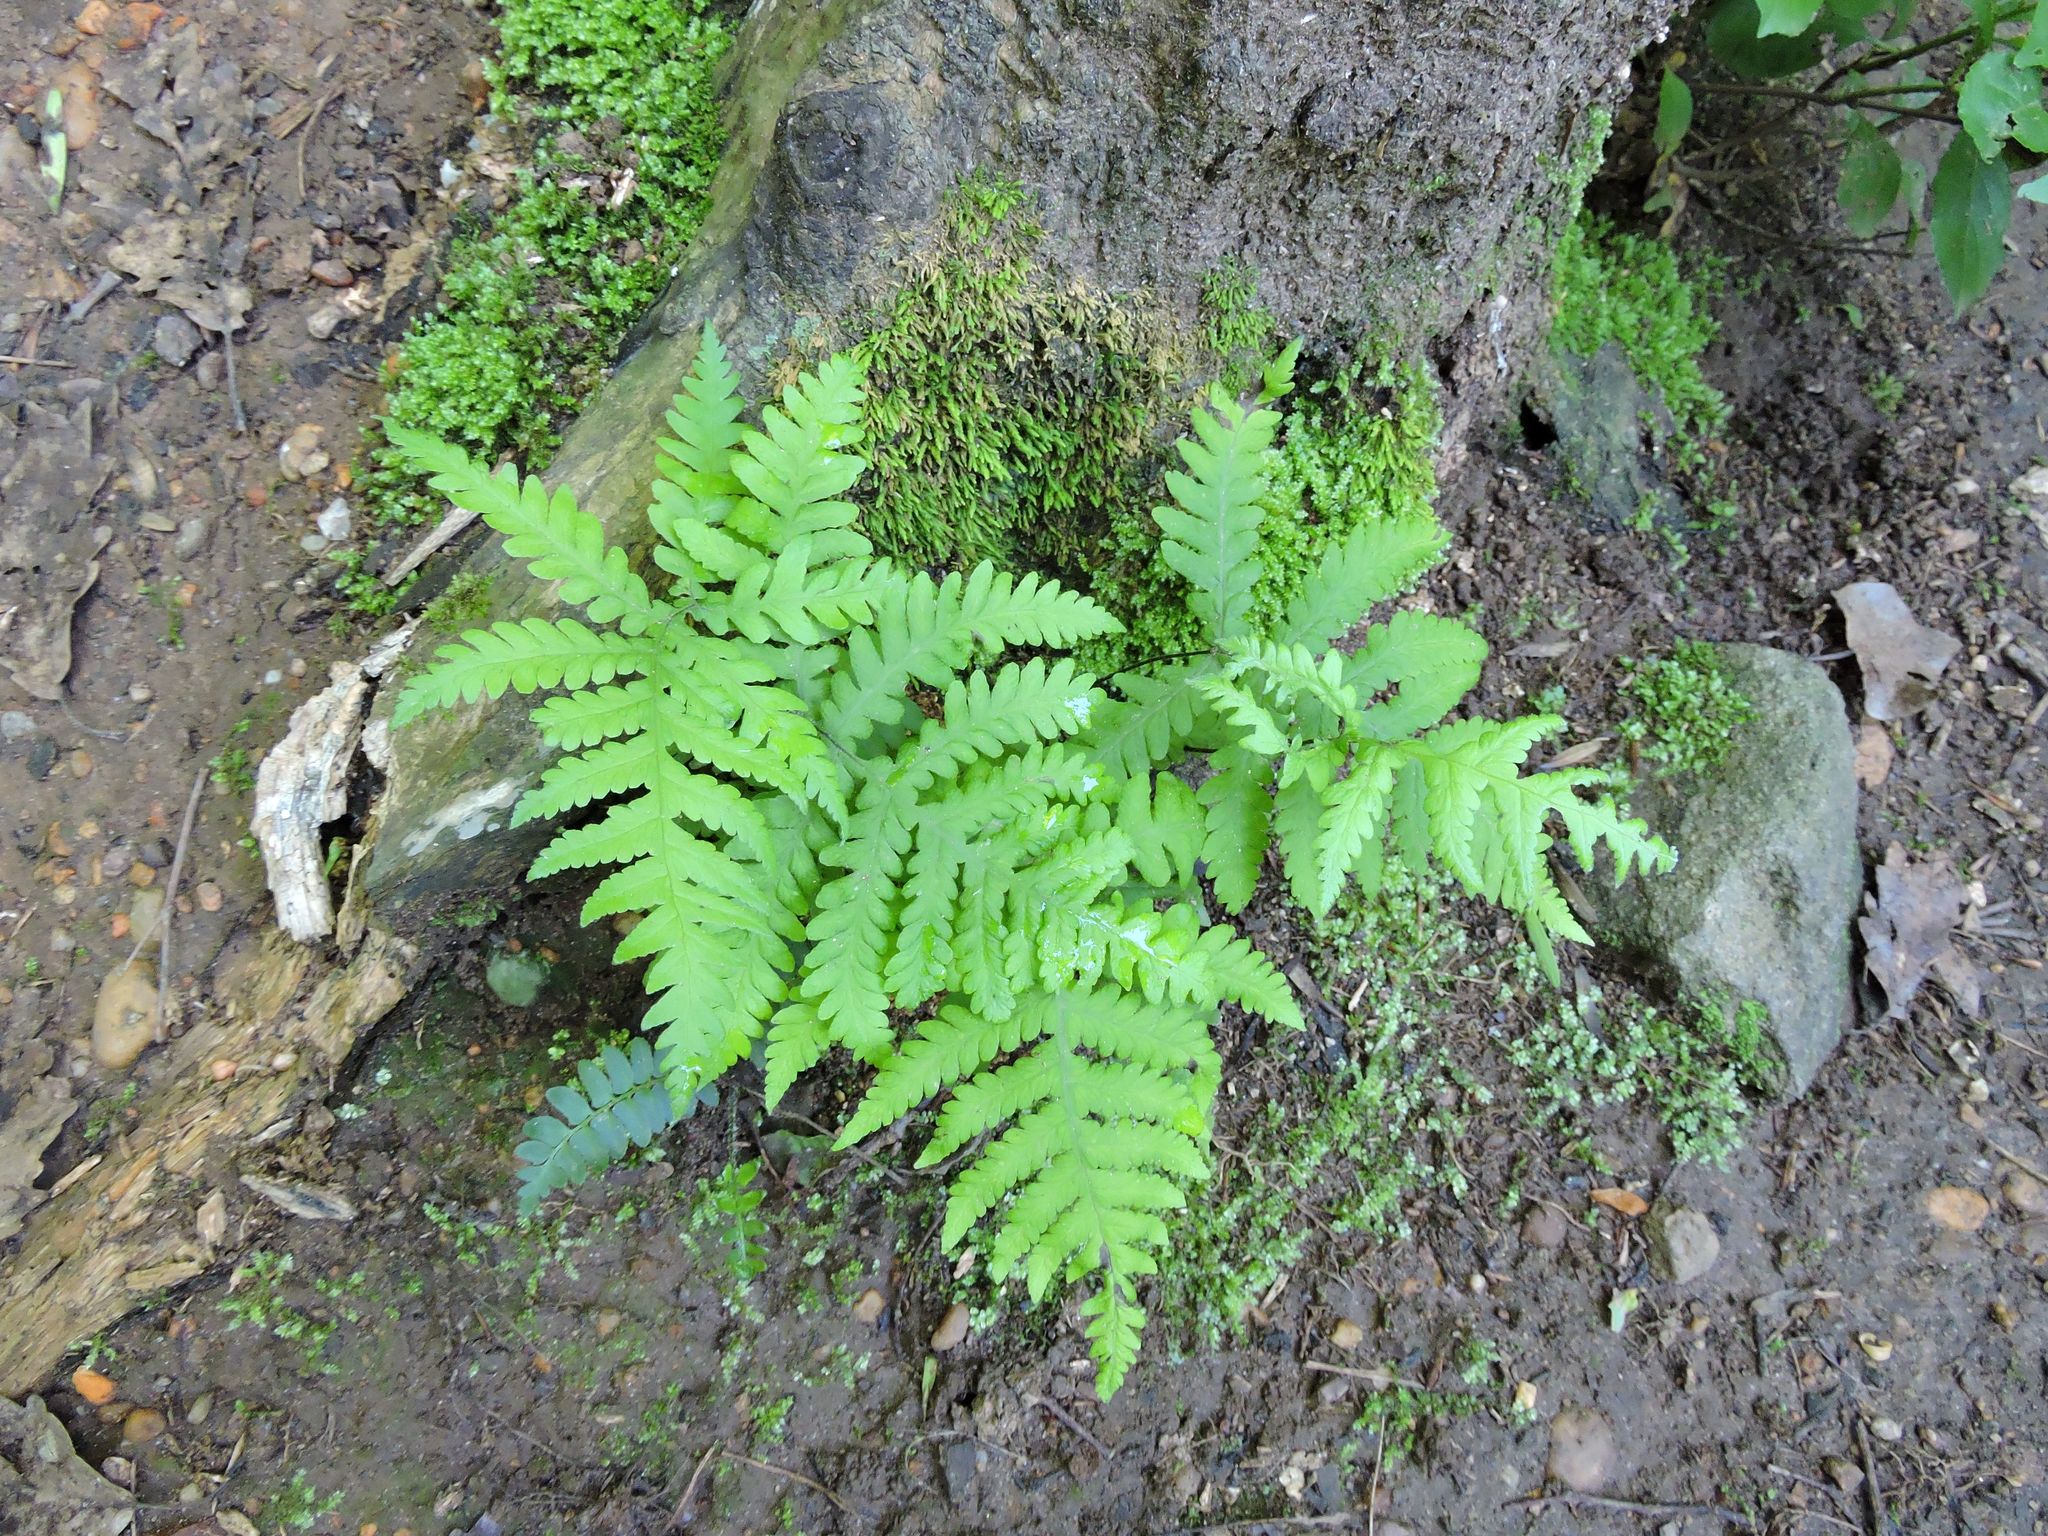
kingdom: Plantae
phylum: Tracheophyta
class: Polypodiopsida
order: Polypodiales
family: Onocleaceae
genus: Onoclea
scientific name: Onoclea sensibilis
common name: Sensitive fern
